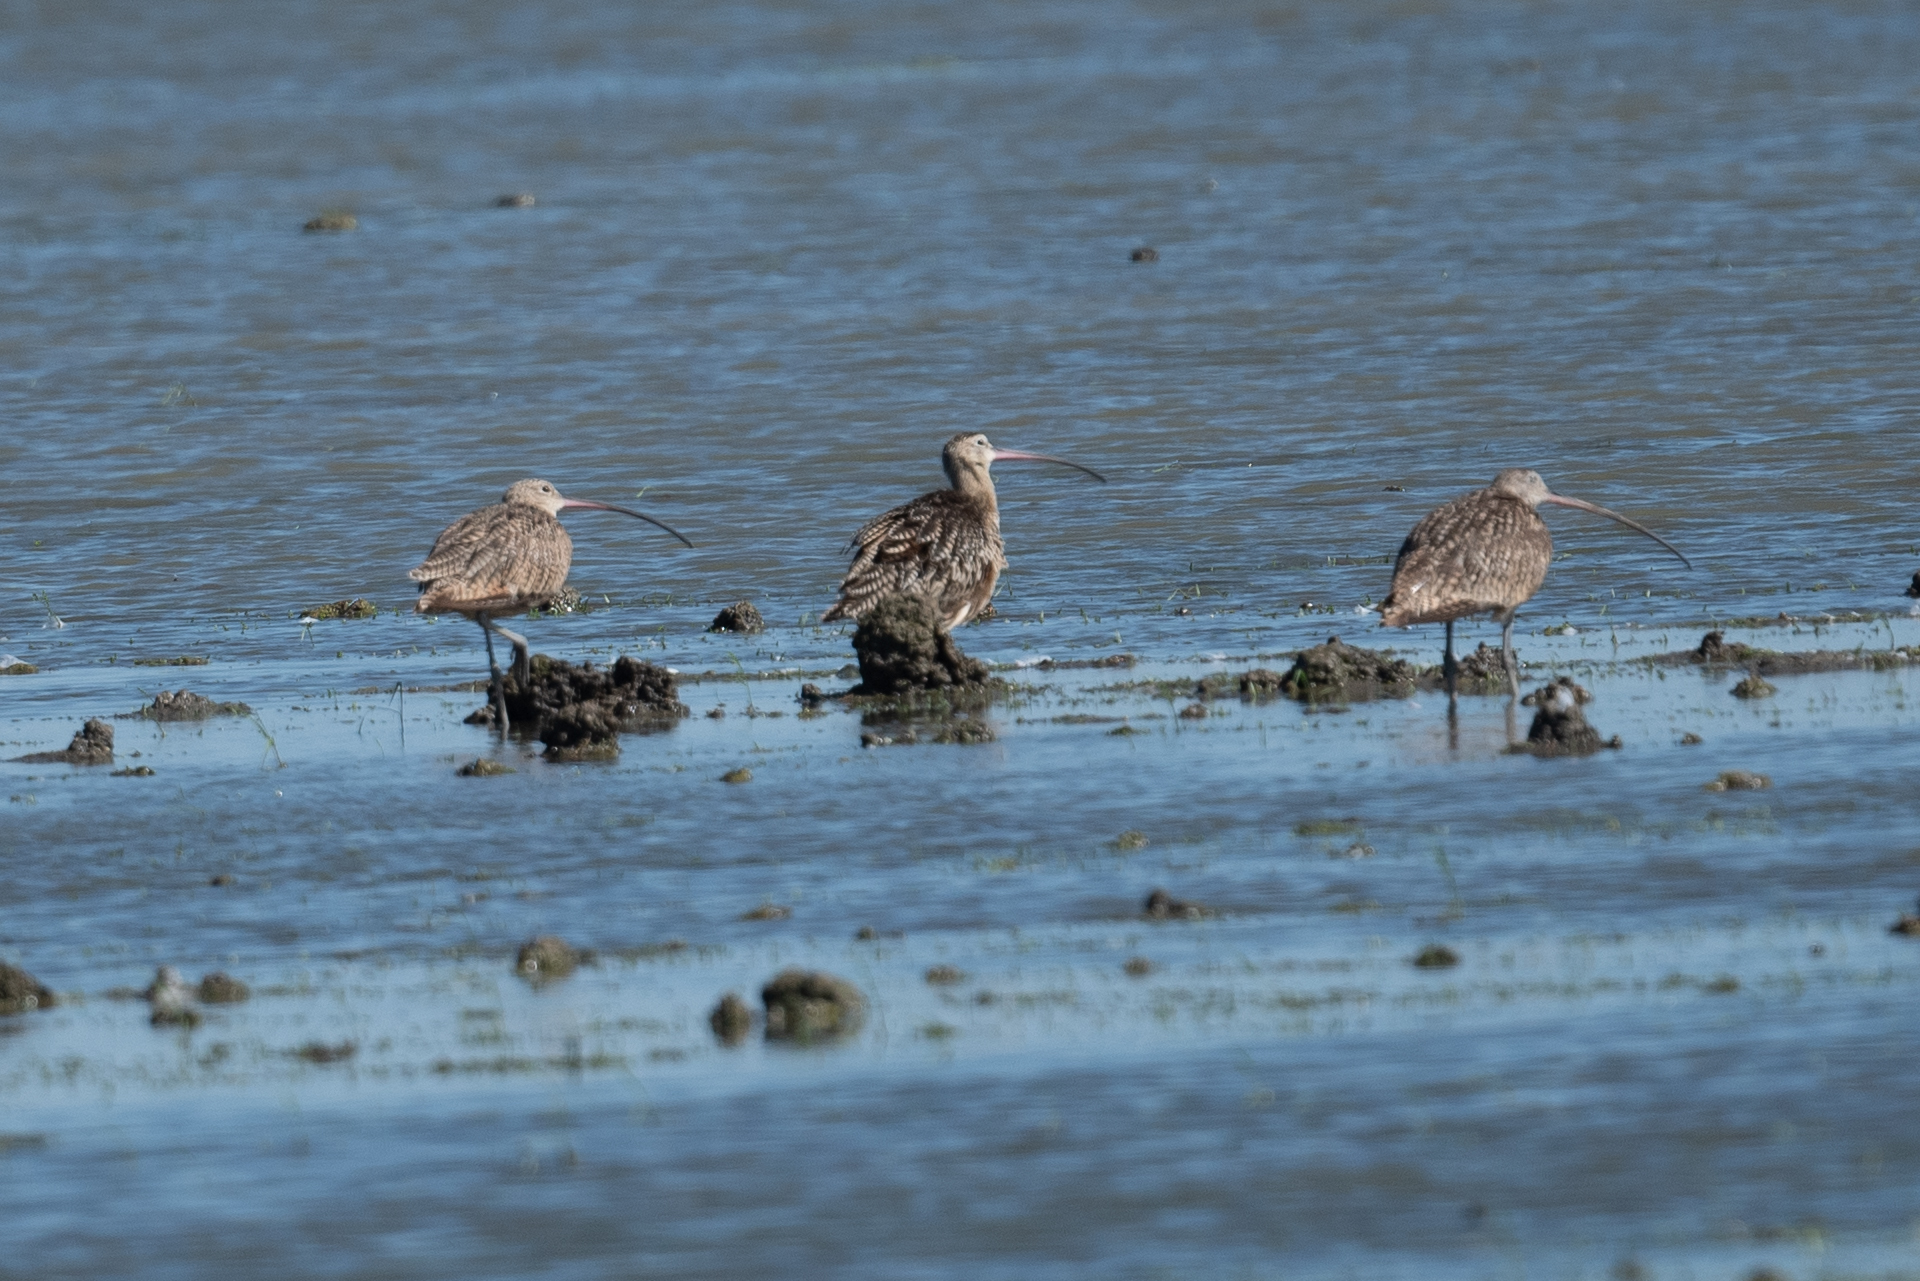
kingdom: Animalia
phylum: Chordata
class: Aves
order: Charadriiformes
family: Scolopacidae
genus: Numenius
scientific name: Numenius americanus
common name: Long-billed curlew
